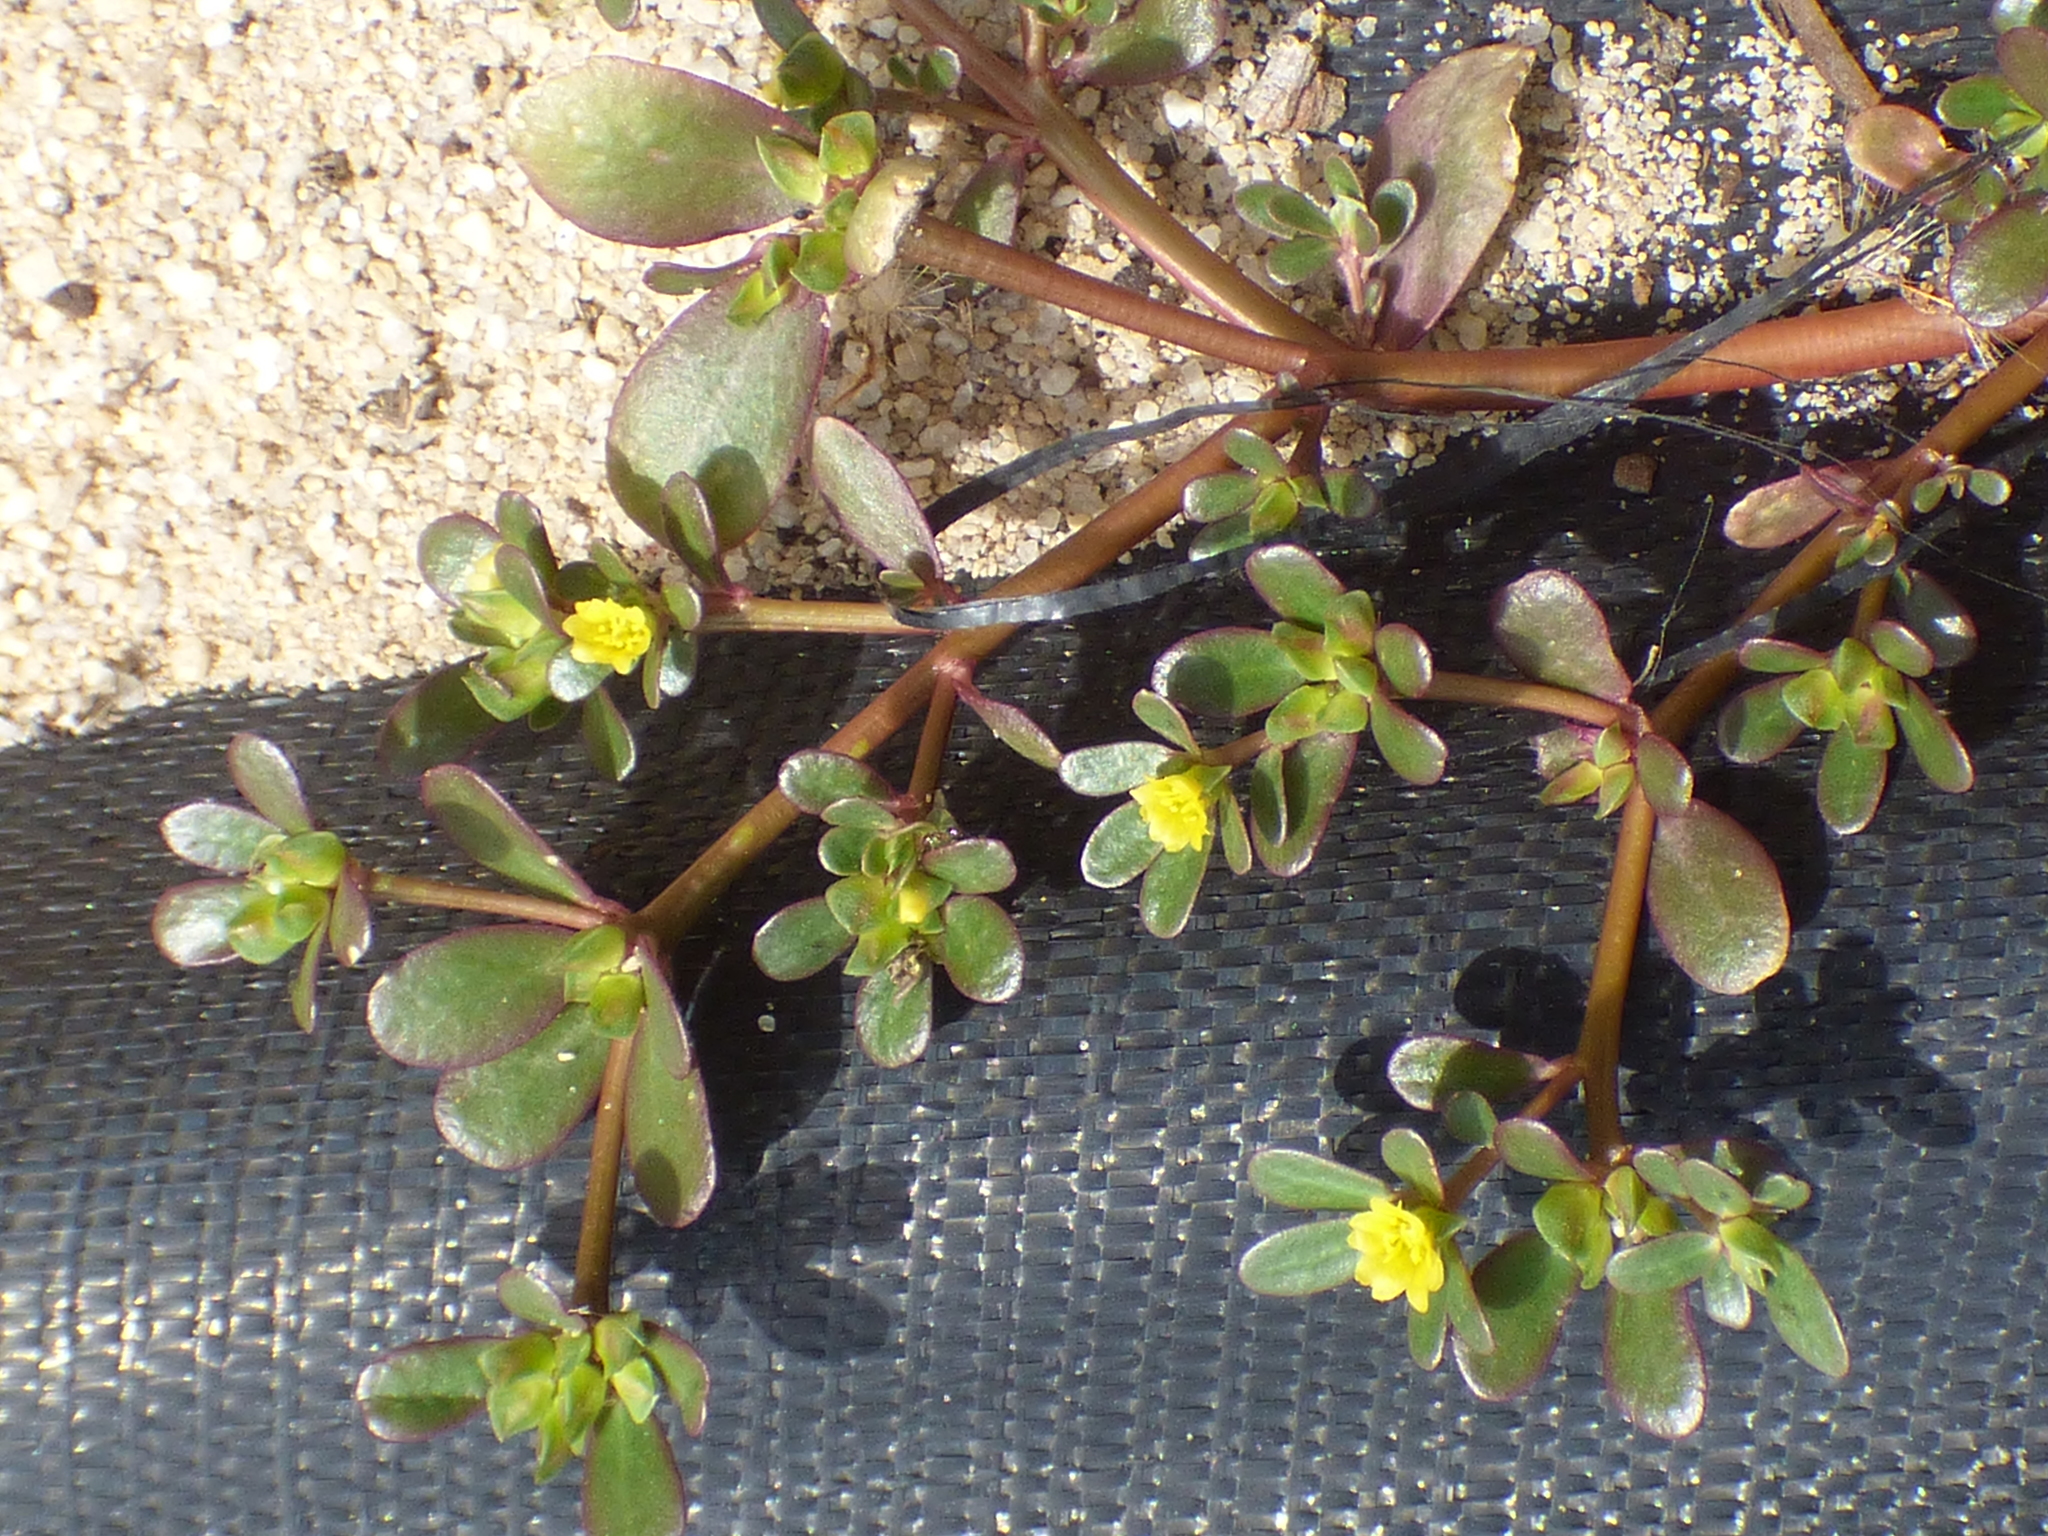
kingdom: Plantae
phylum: Tracheophyta
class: Magnoliopsida
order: Caryophyllales
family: Portulacaceae
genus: Portulaca
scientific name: Portulaca oleracea
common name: Common purslane
